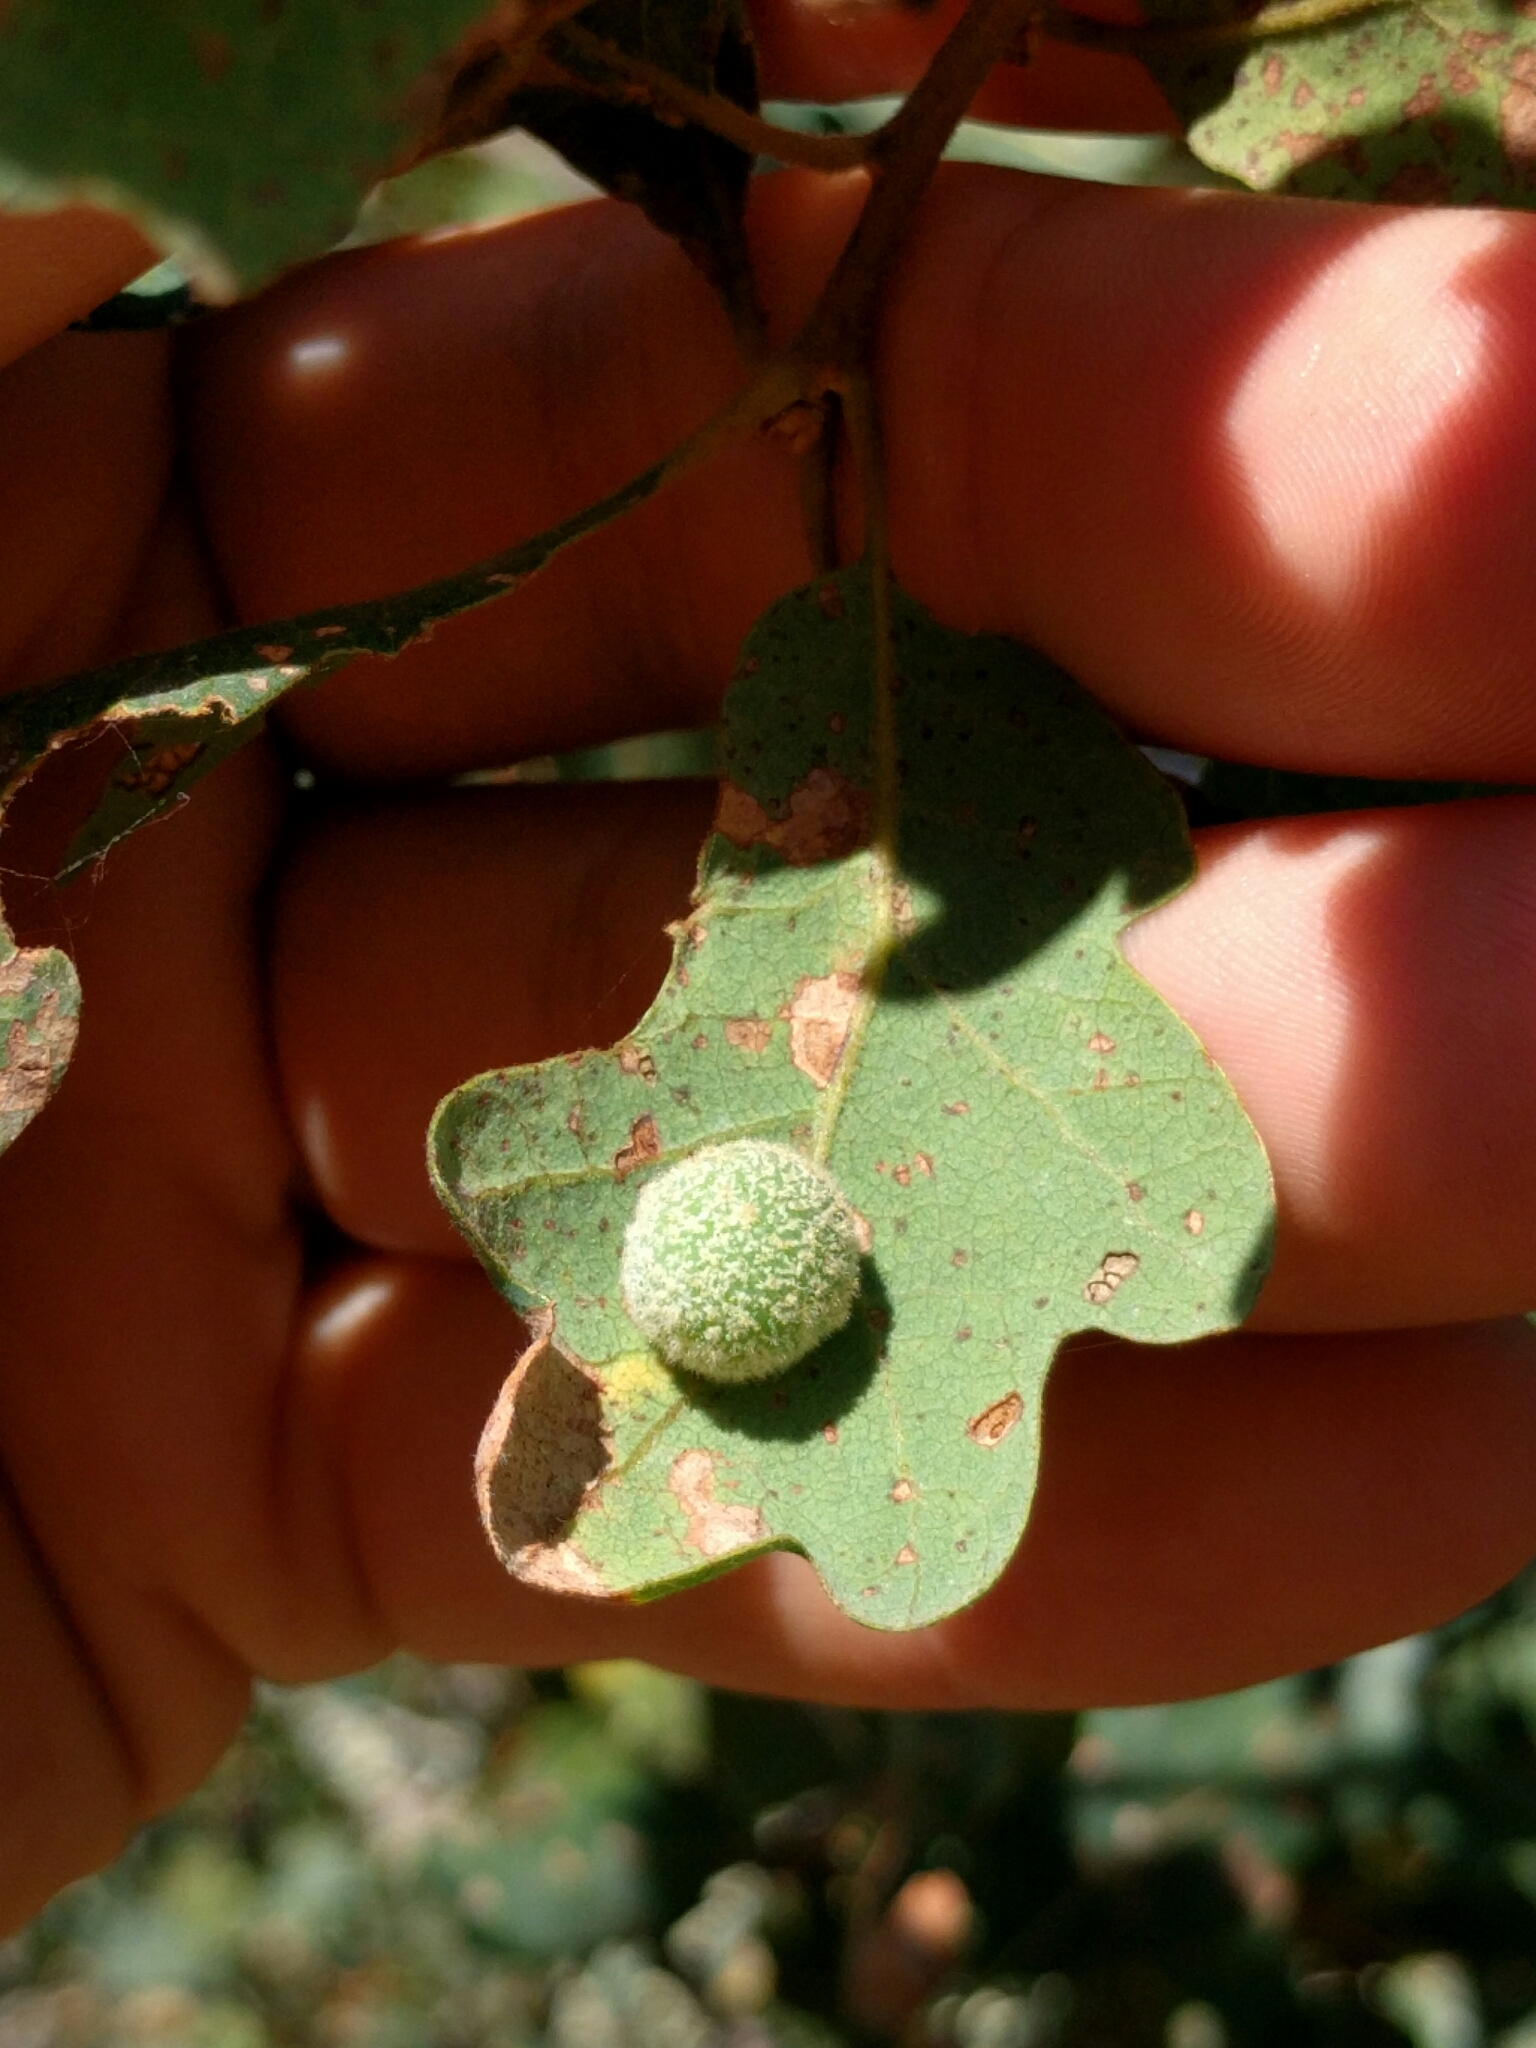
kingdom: Animalia
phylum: Arthropoda
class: Insecta
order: Hymenoptera
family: Cynipidae
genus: Cynips
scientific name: Cynips
